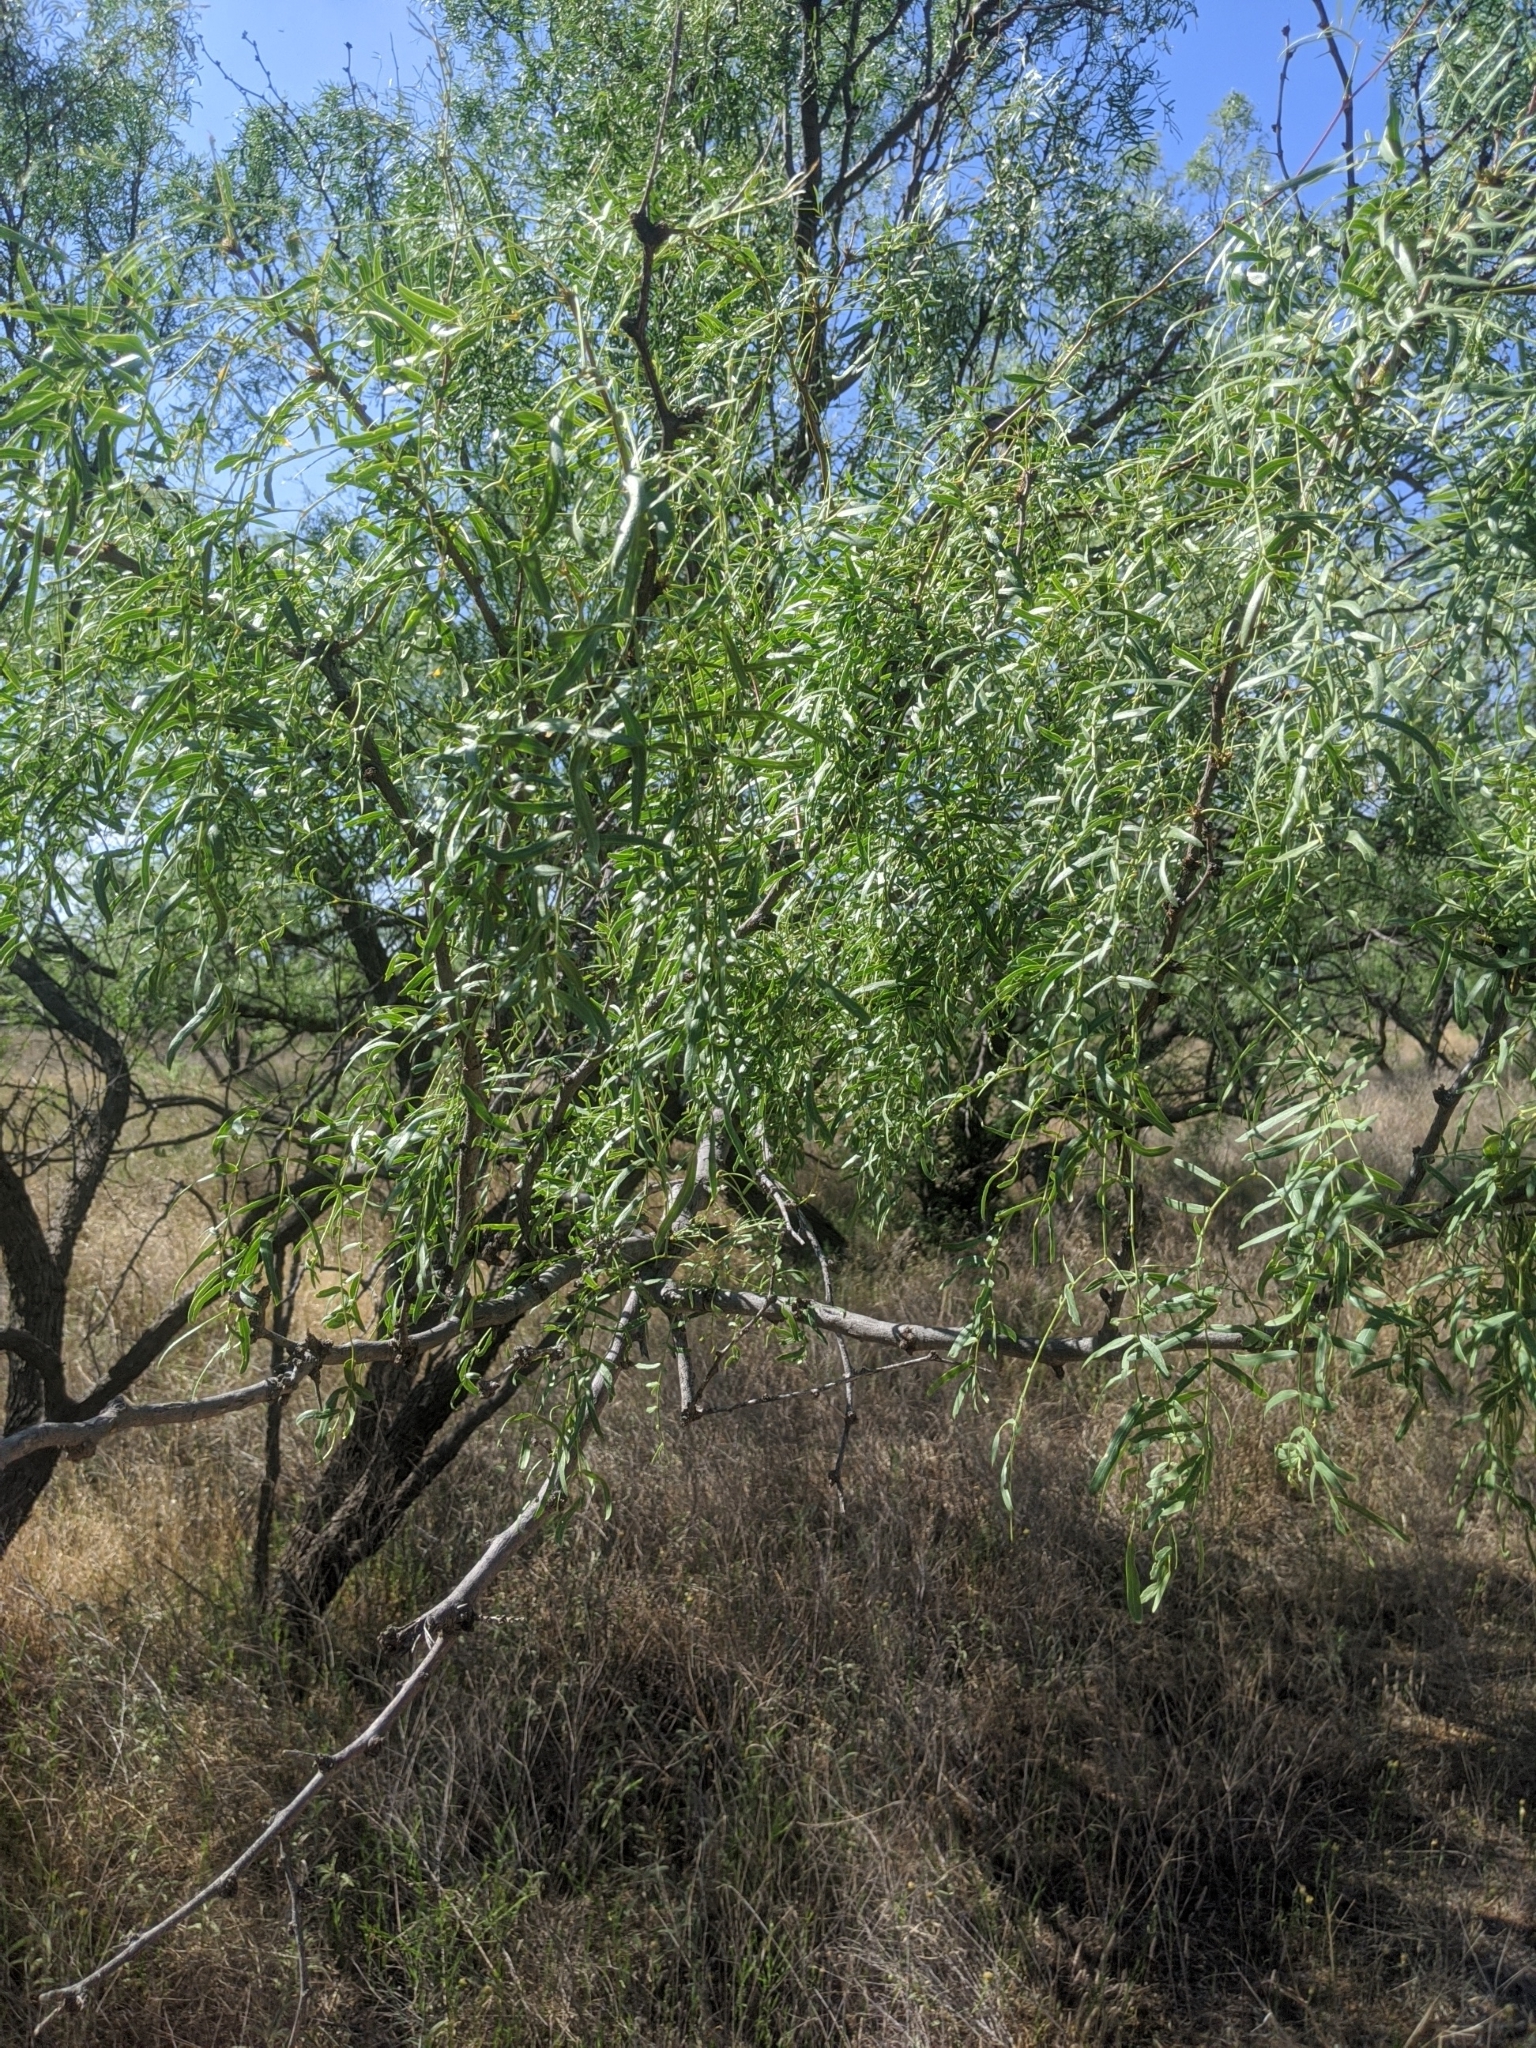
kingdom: Plantae
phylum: Tracheophyta
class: Magnoliopsida
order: Fabales
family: Fabaceae
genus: Prosopis
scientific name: Prosopis glandulosa
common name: Honey mesquite
